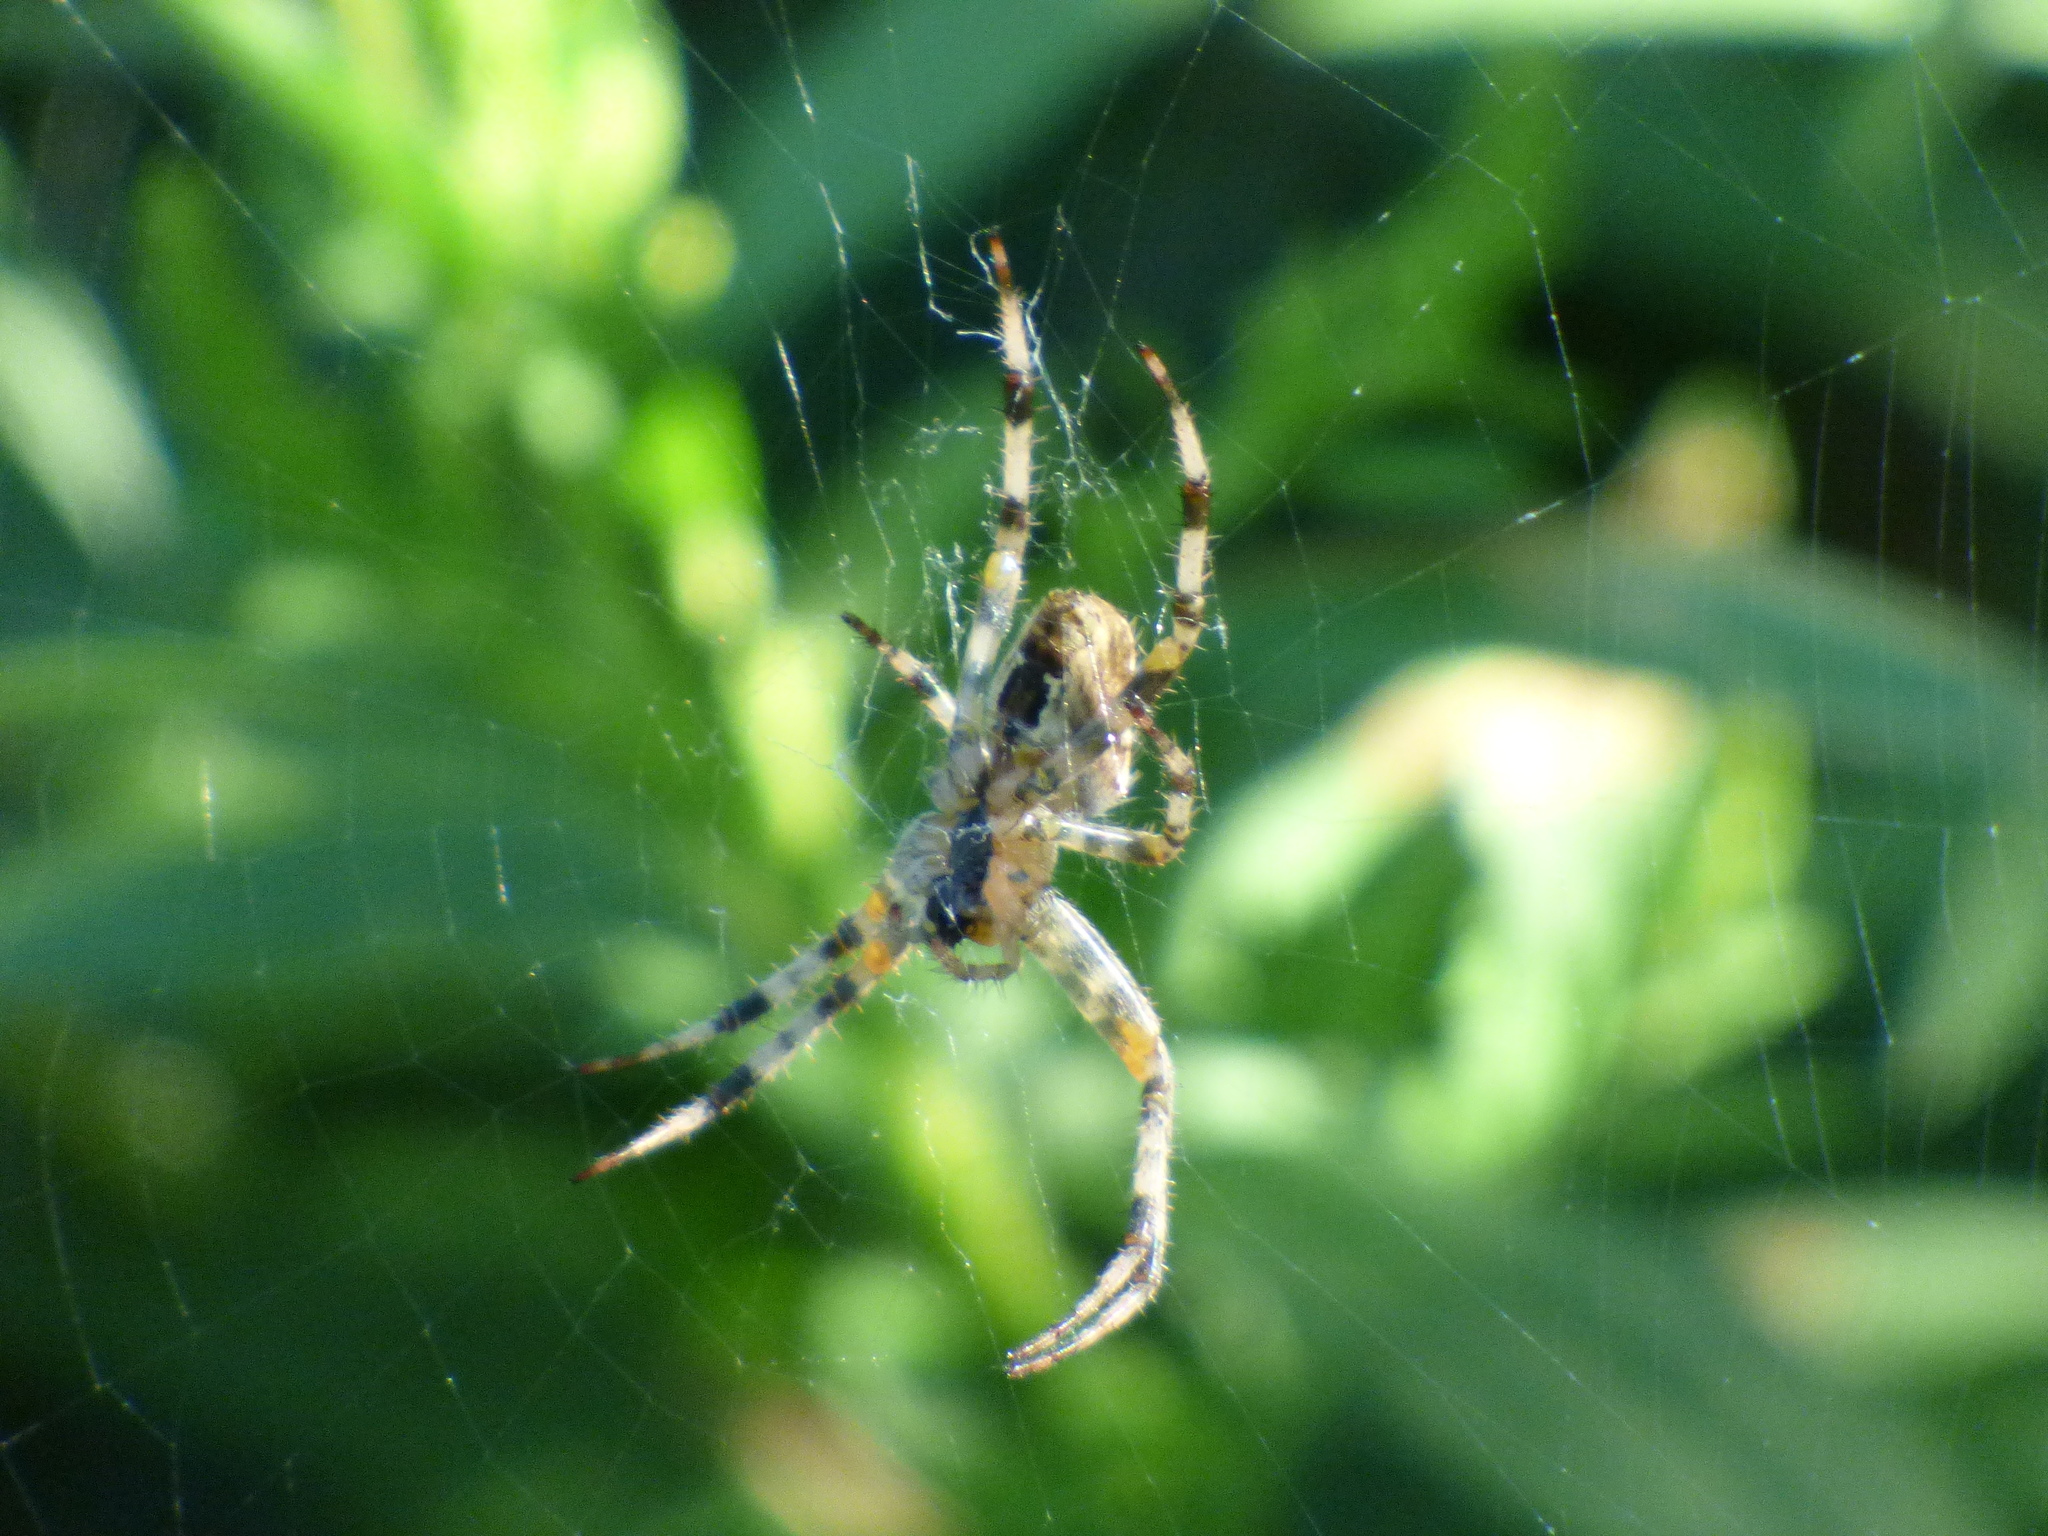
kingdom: Animalia
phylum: Arthropoda
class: Arachnida
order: Araneae
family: Araneidae
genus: Araneus
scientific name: Araneus diadematus
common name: Cross orbweaver
